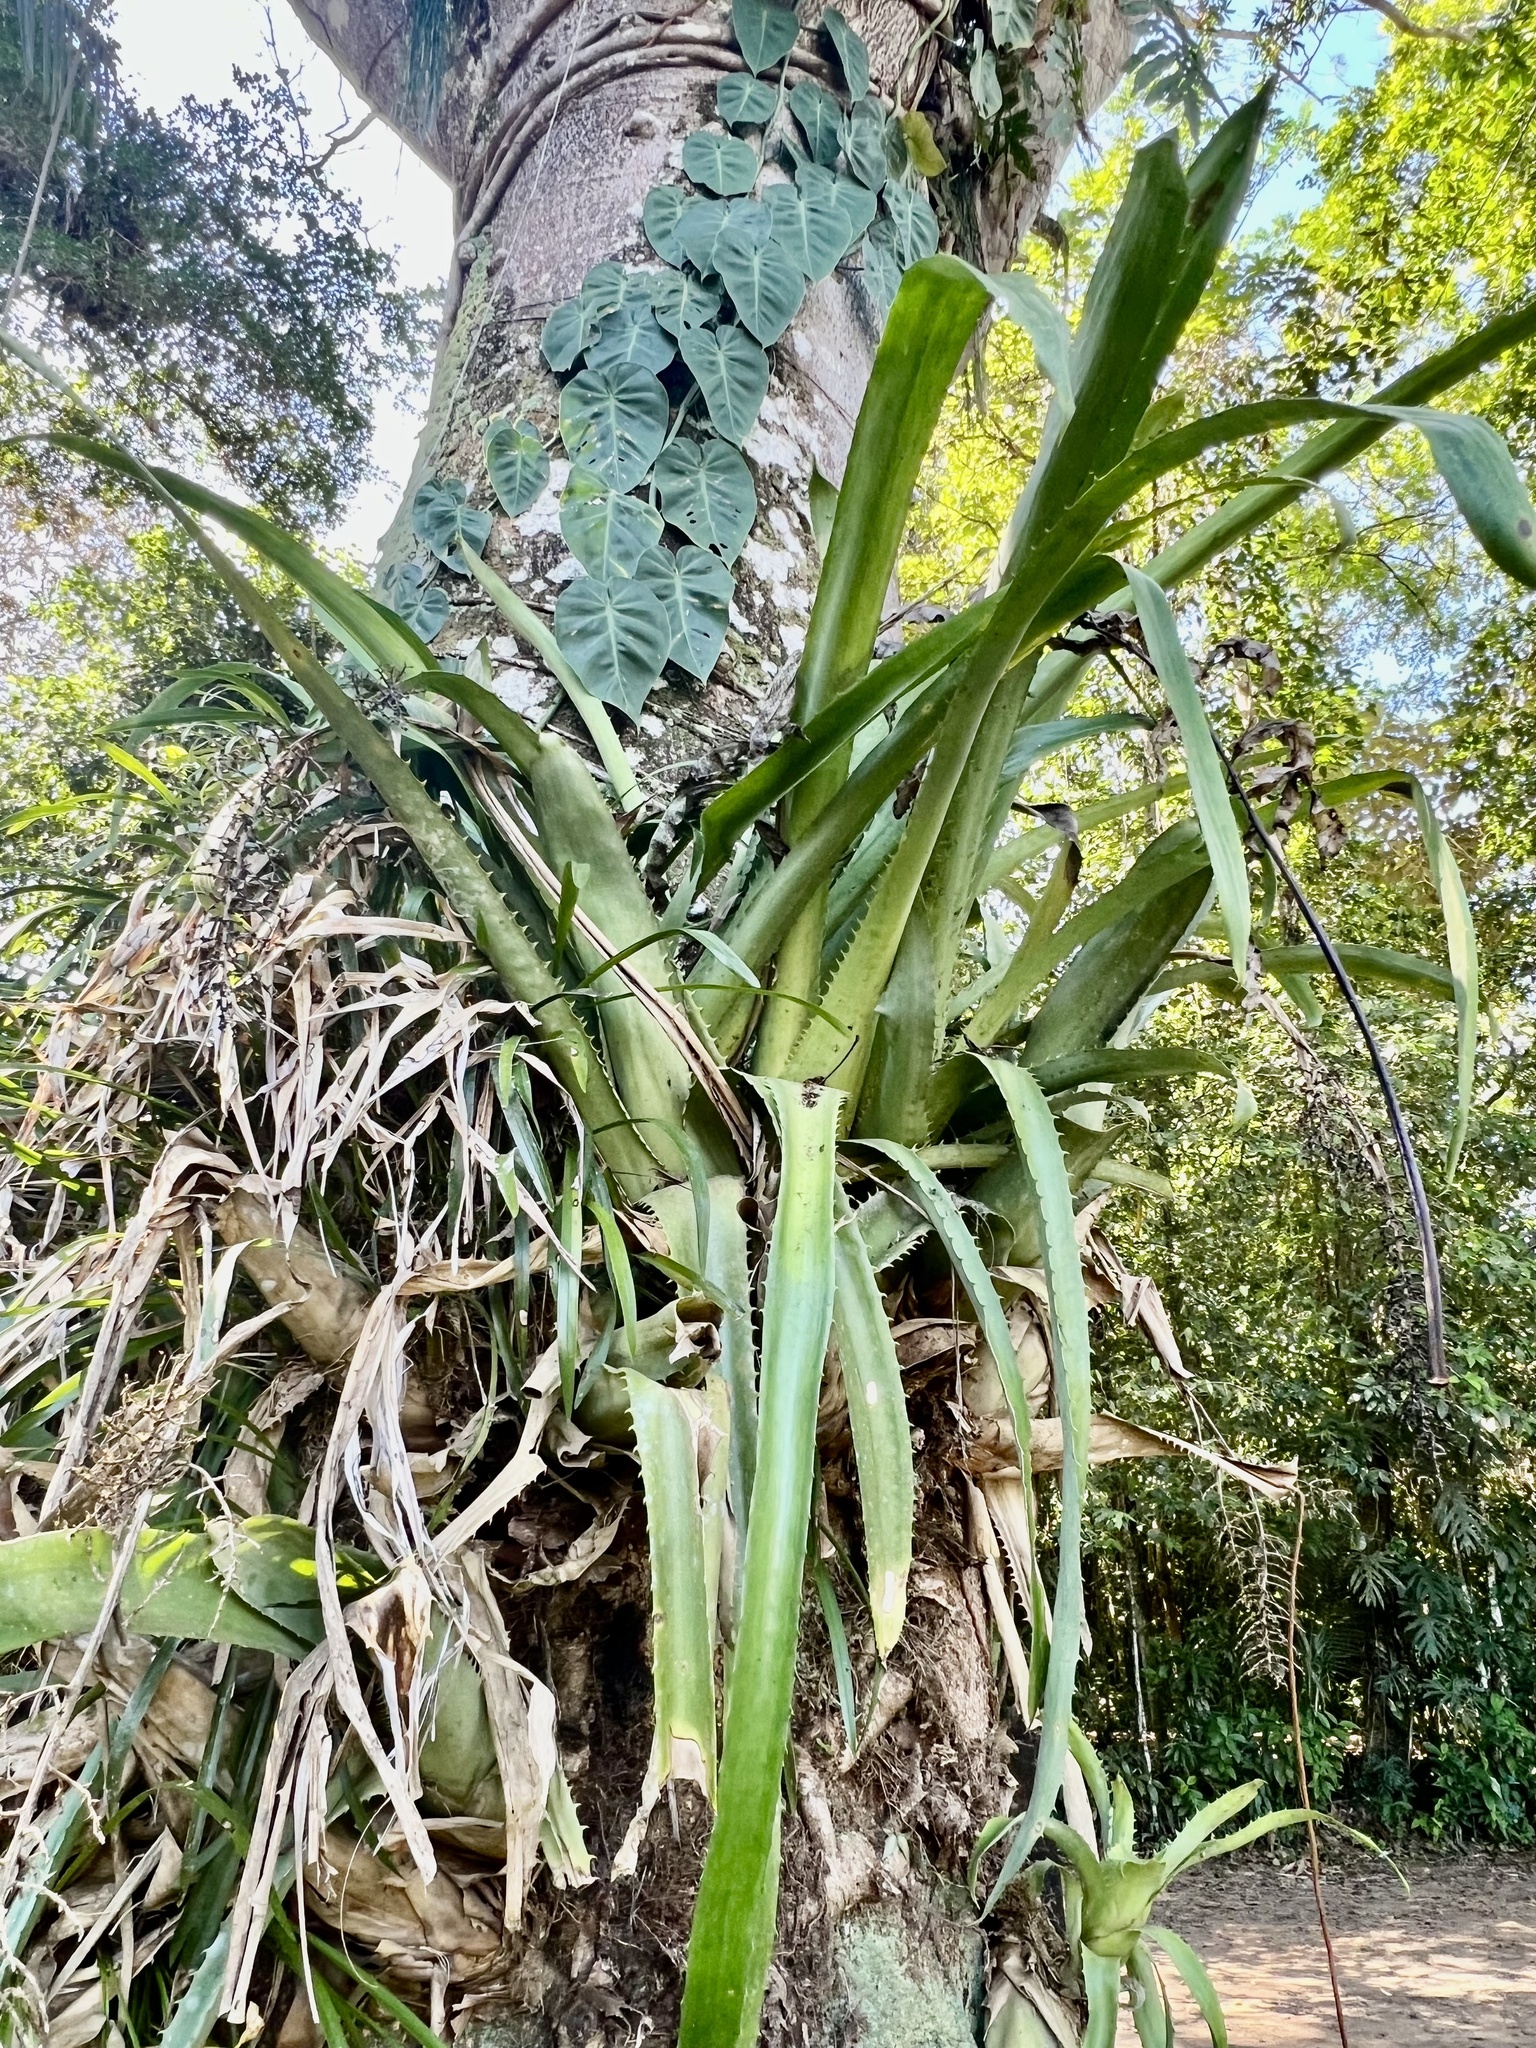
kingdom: Plantae
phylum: Tracheophyta
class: Liliopsida
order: Asparagales
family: Orchidaceae
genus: Maxillaria
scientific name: Maxillaria egertoniana
